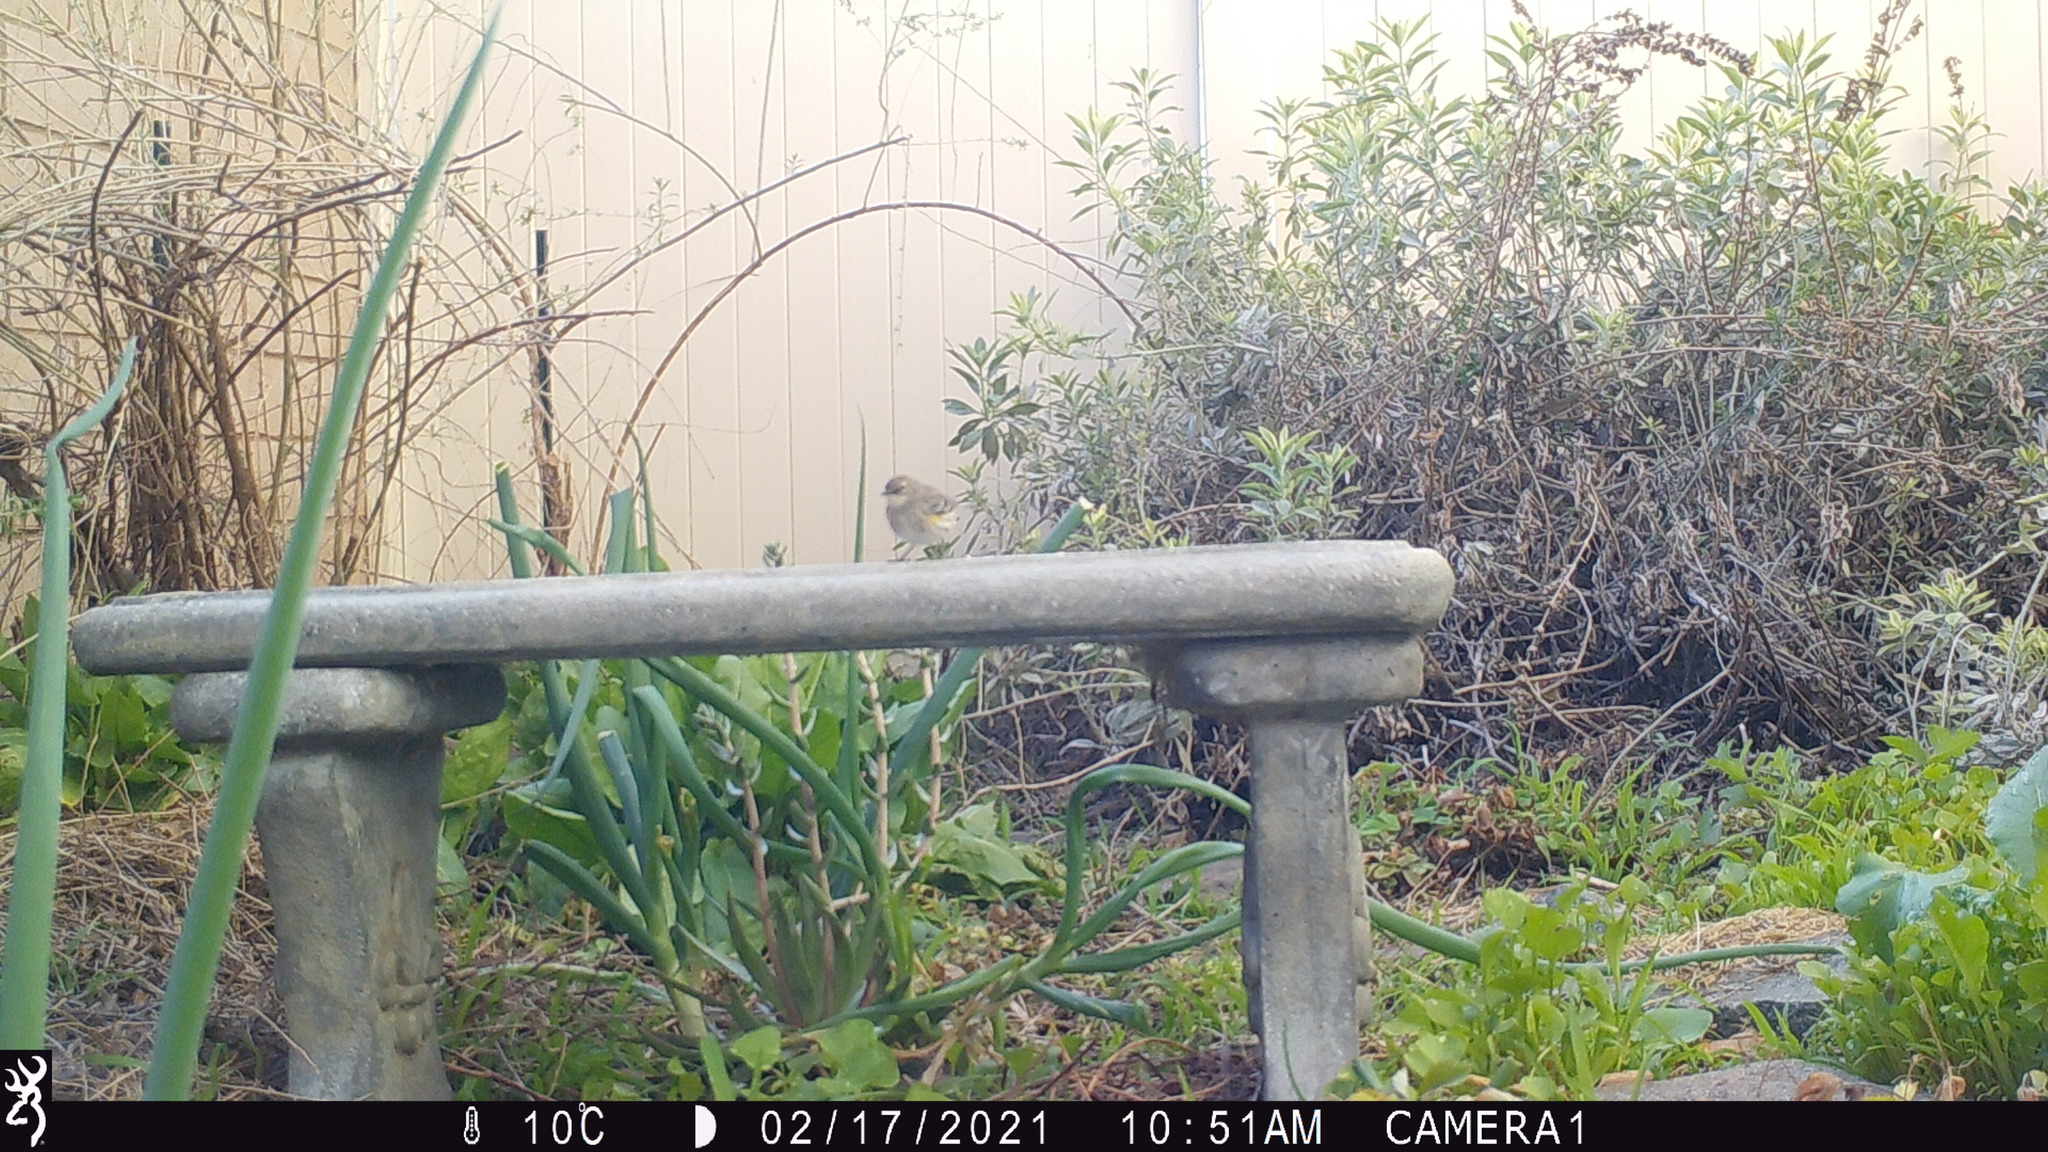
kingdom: Animalia
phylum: Chordata
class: Aves
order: Passeriformes
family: Parulidae
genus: Setophaga
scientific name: Setophaga coronata
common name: Myrtle warbler
